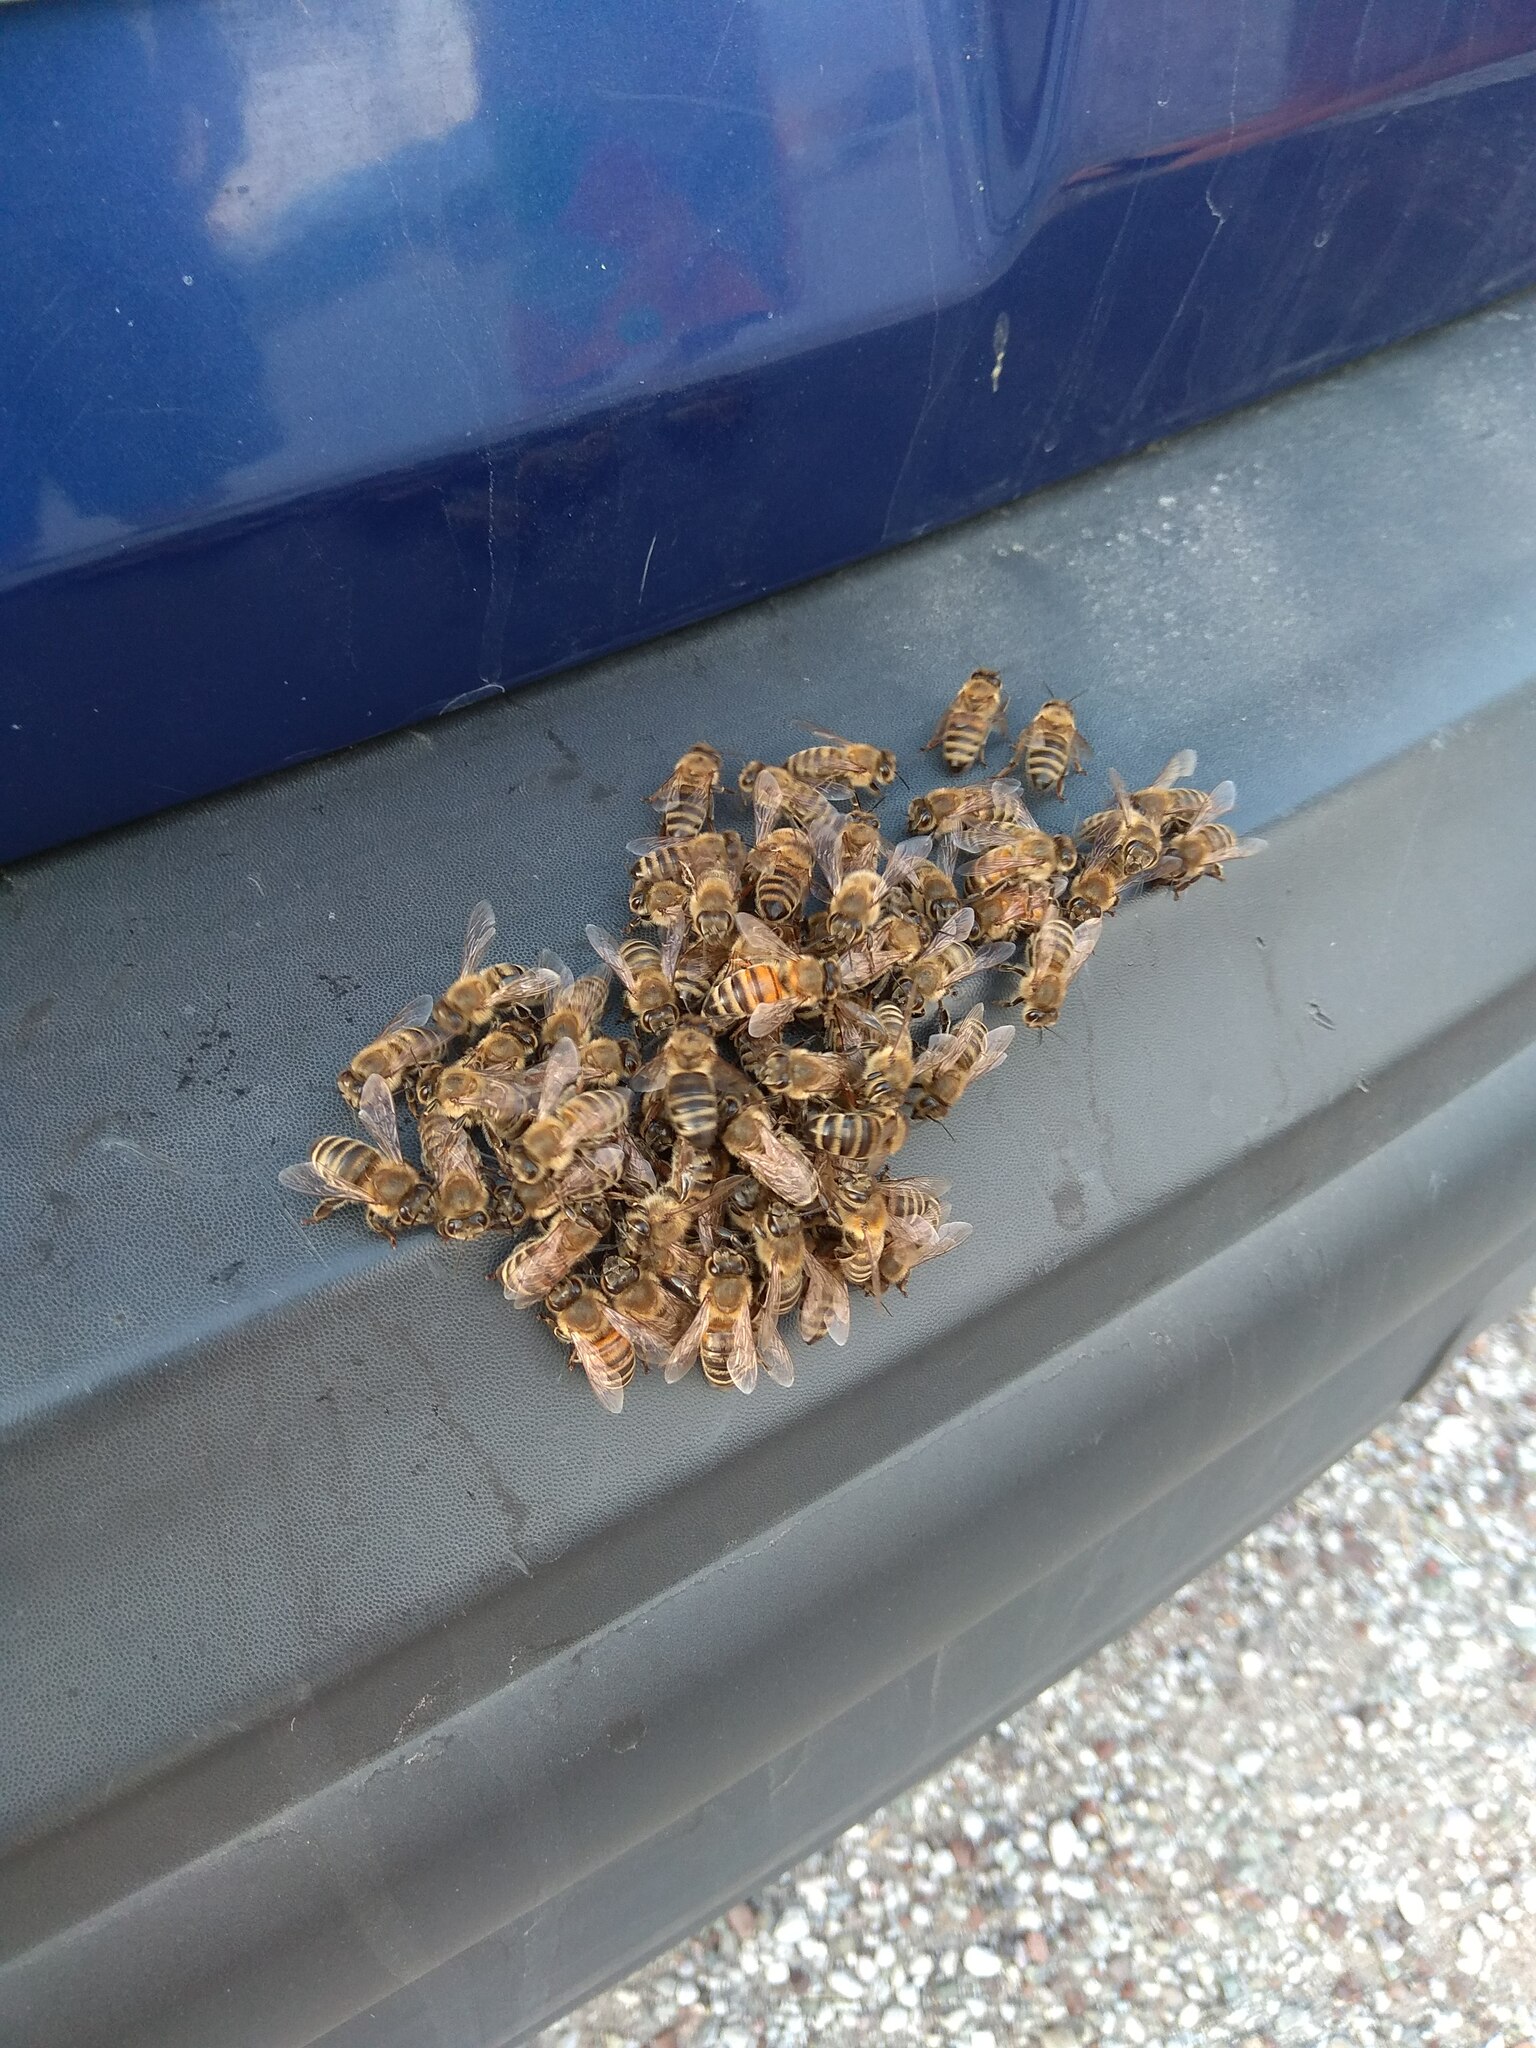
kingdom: Animalia
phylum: Arthropoda
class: Insecta
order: Hymenoptera
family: Apidae
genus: Apis
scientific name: Apis mellifera
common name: Honey bee
